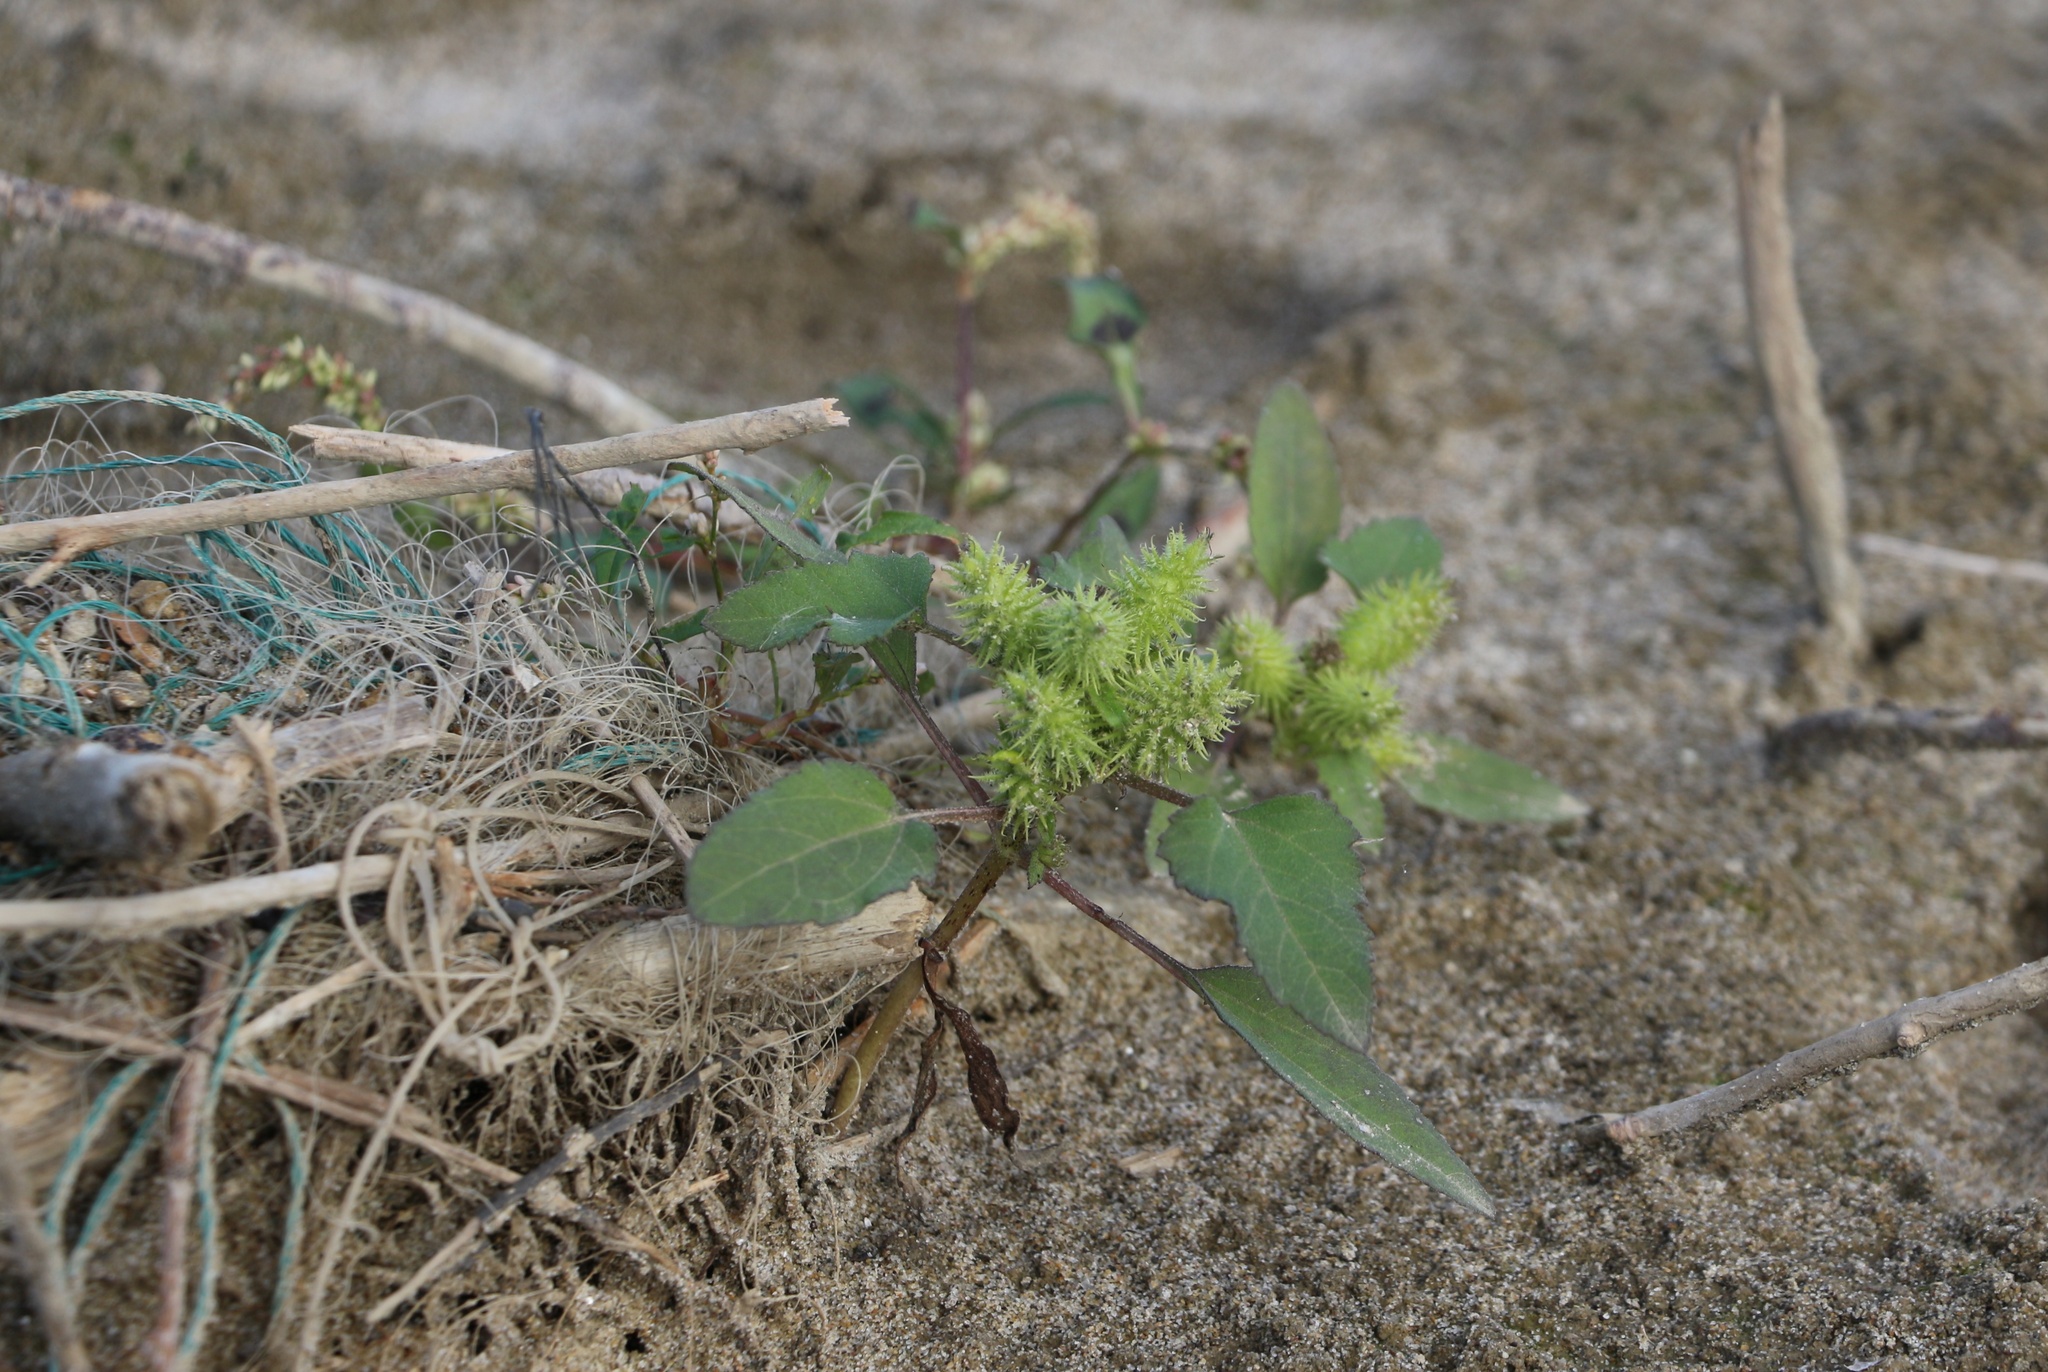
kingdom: Plantae
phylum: Tracheophyta
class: Magnoliopsida
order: Asterales
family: Asteraceae
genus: Xanthium
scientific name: Xanthium orientale
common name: Californian burr
